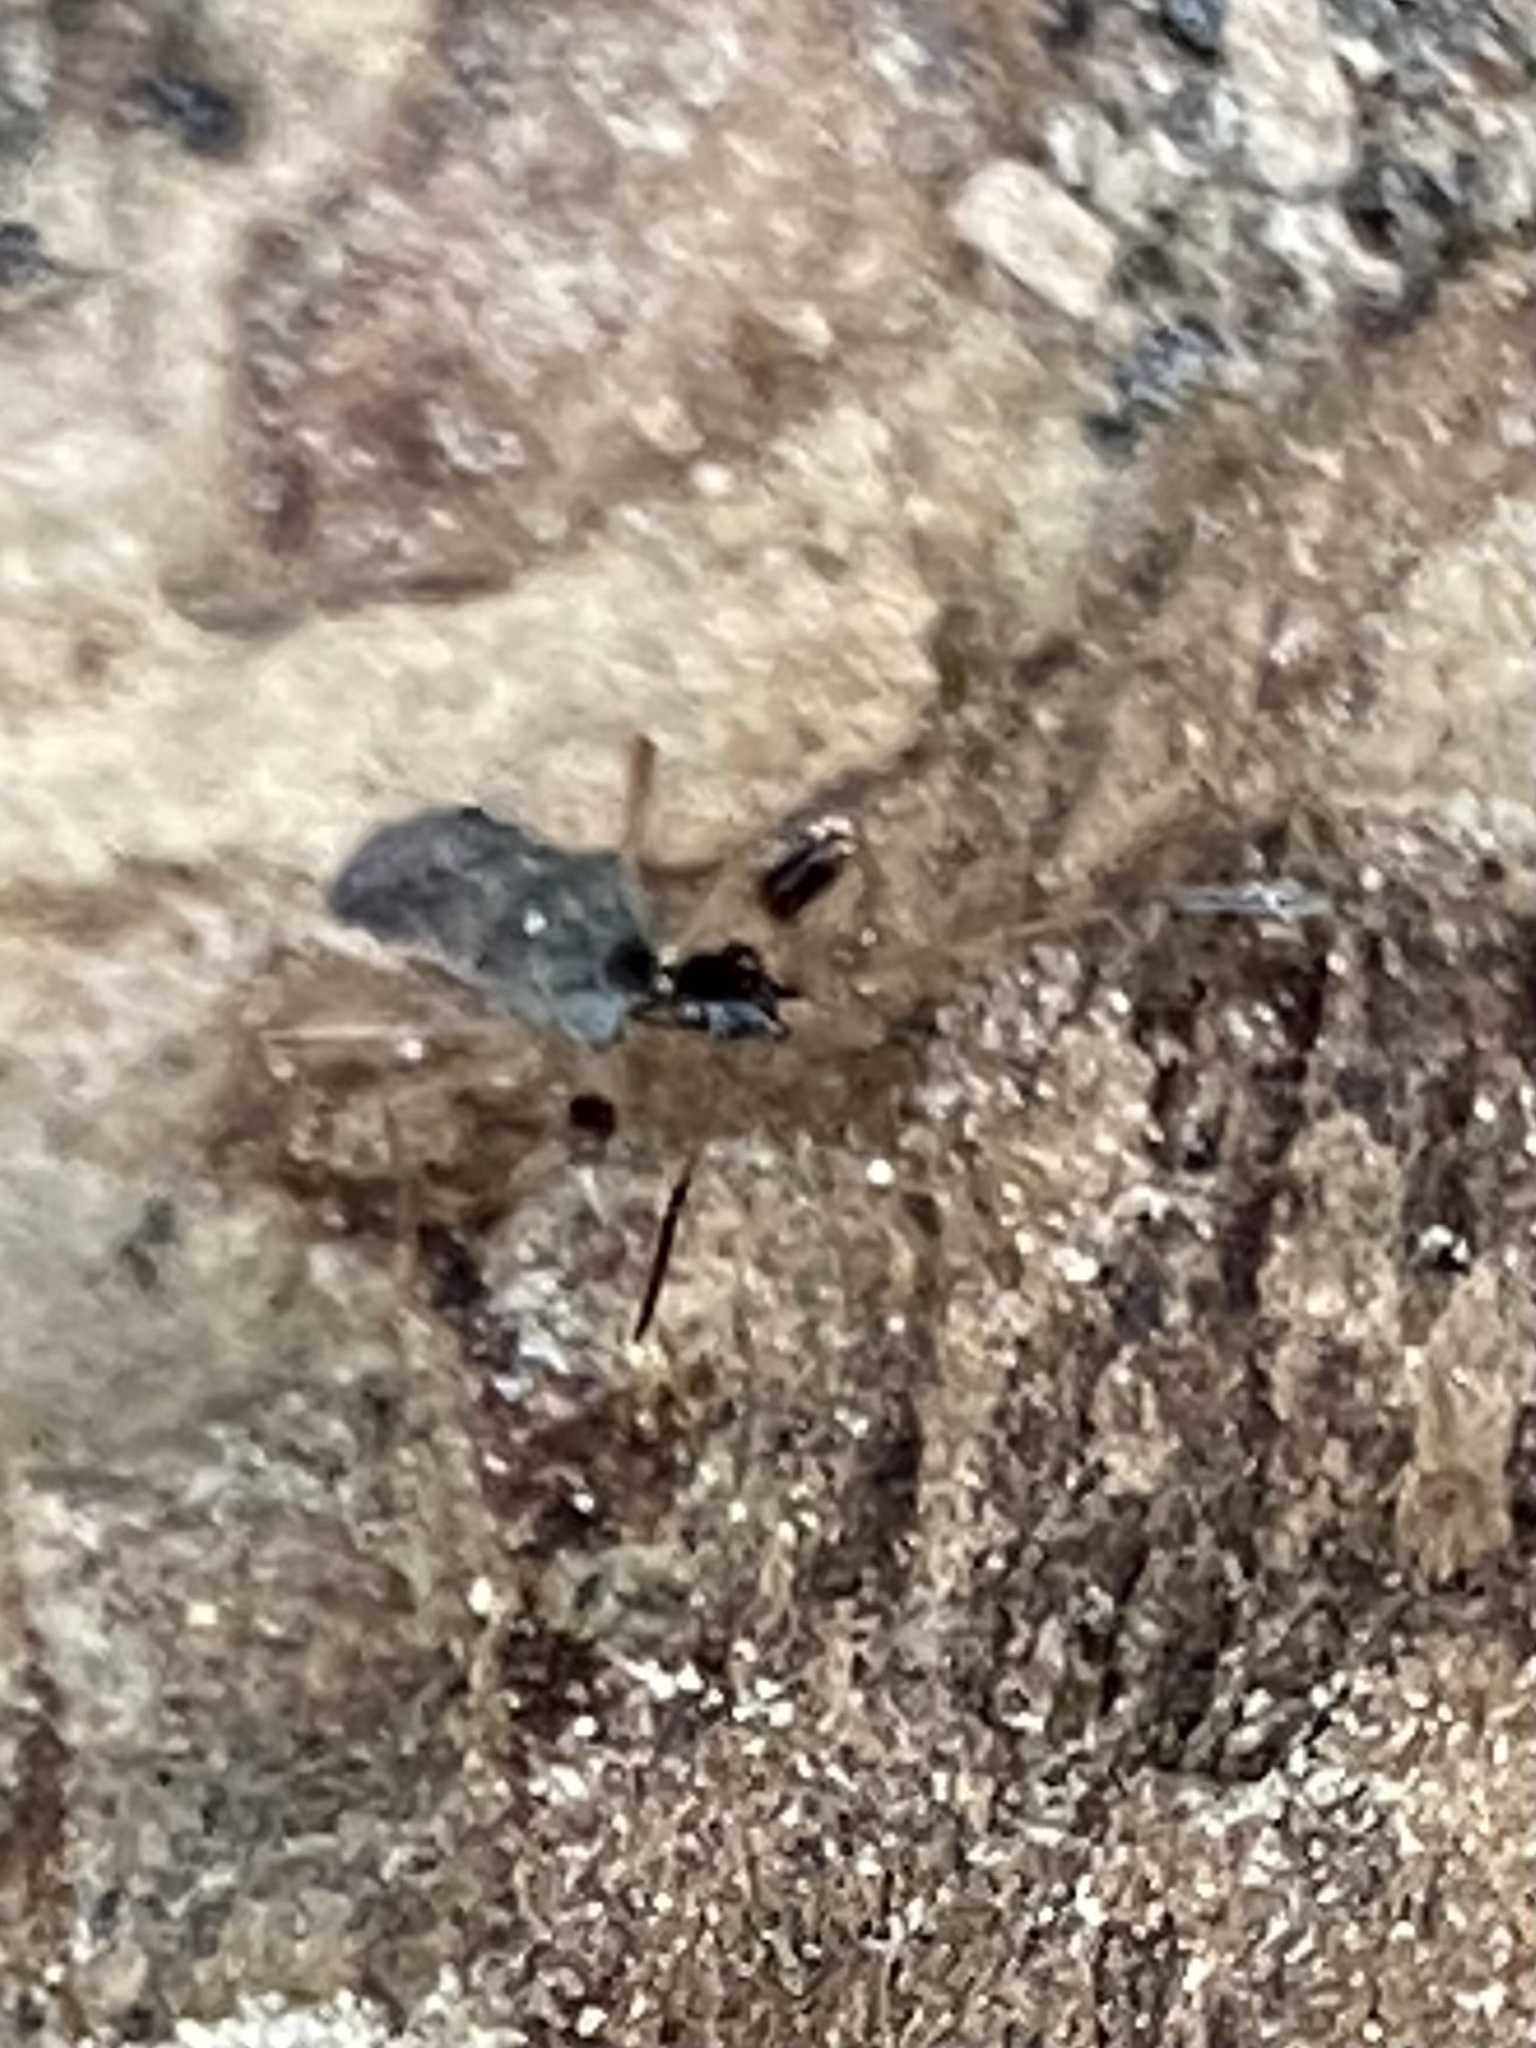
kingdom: Animalia
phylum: Arthropoda
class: Insecta
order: Hemiptera
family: Rhyparochromidae
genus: Myodocha
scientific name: Myodocha serripes
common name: Long-necked seed bug
